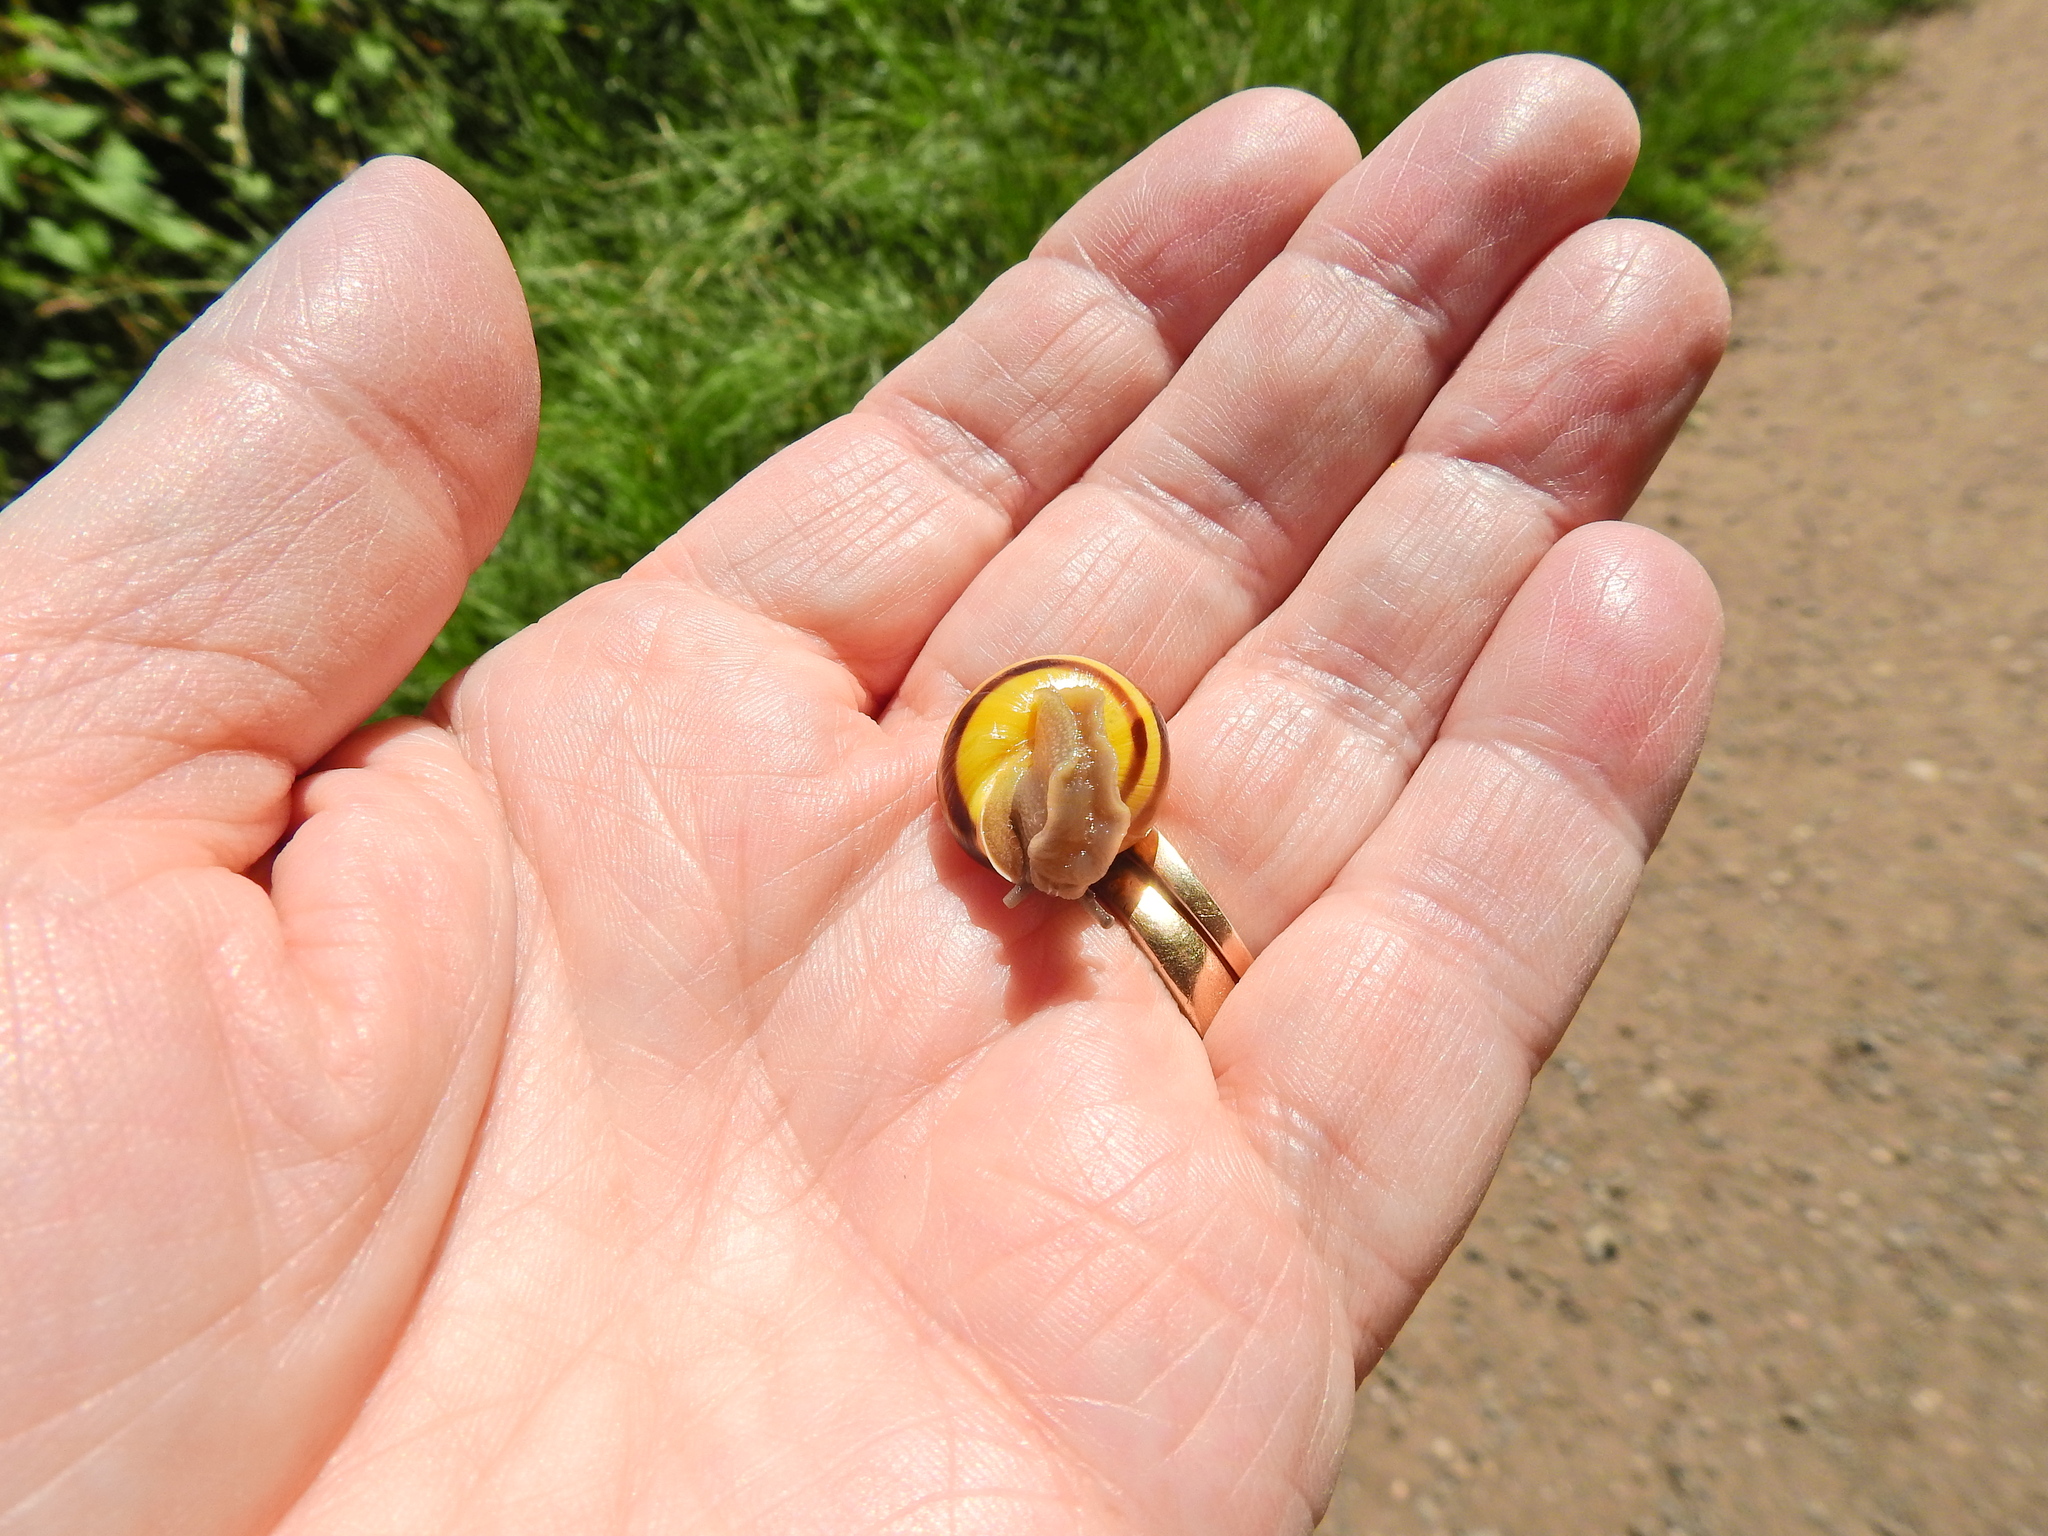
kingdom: Animalia
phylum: Mollusca
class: Gastropoda
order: Stylommatophora
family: Helicidae
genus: Cepaea
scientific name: Cepaea hortensis
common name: White-lip gardensnail
